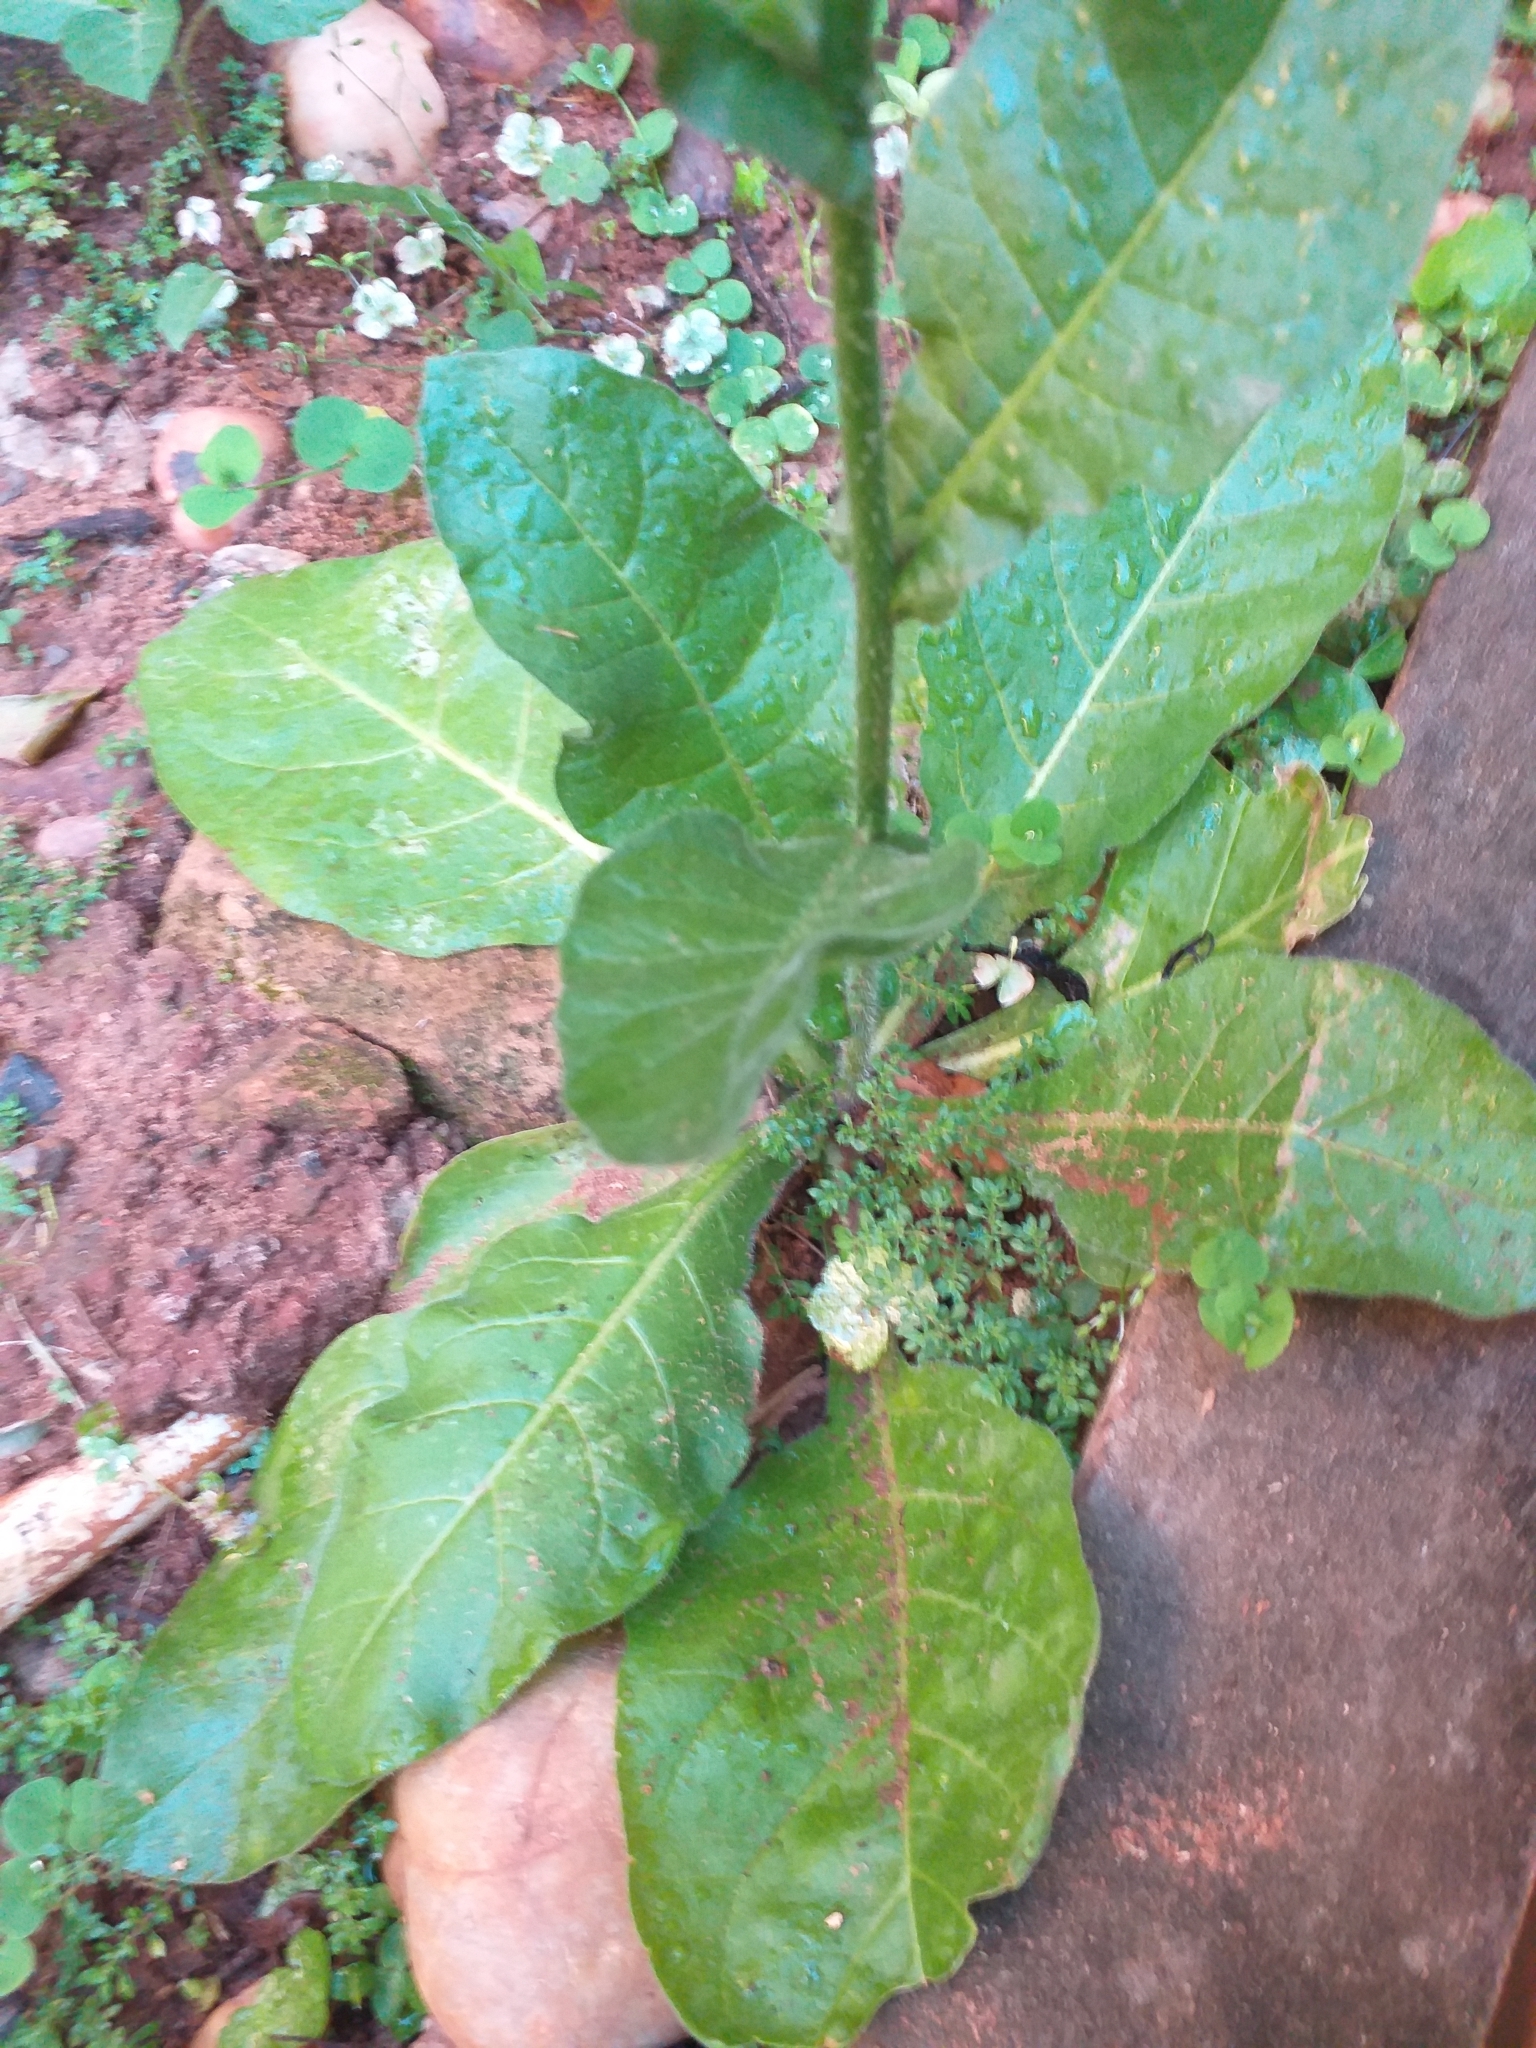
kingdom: Plantae
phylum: Tracheophyta
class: Magnoliopsida
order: Solanales
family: Solanaceae
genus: Nicotiana
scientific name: Nicotiana longiflora
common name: Long-flowered tobacco
